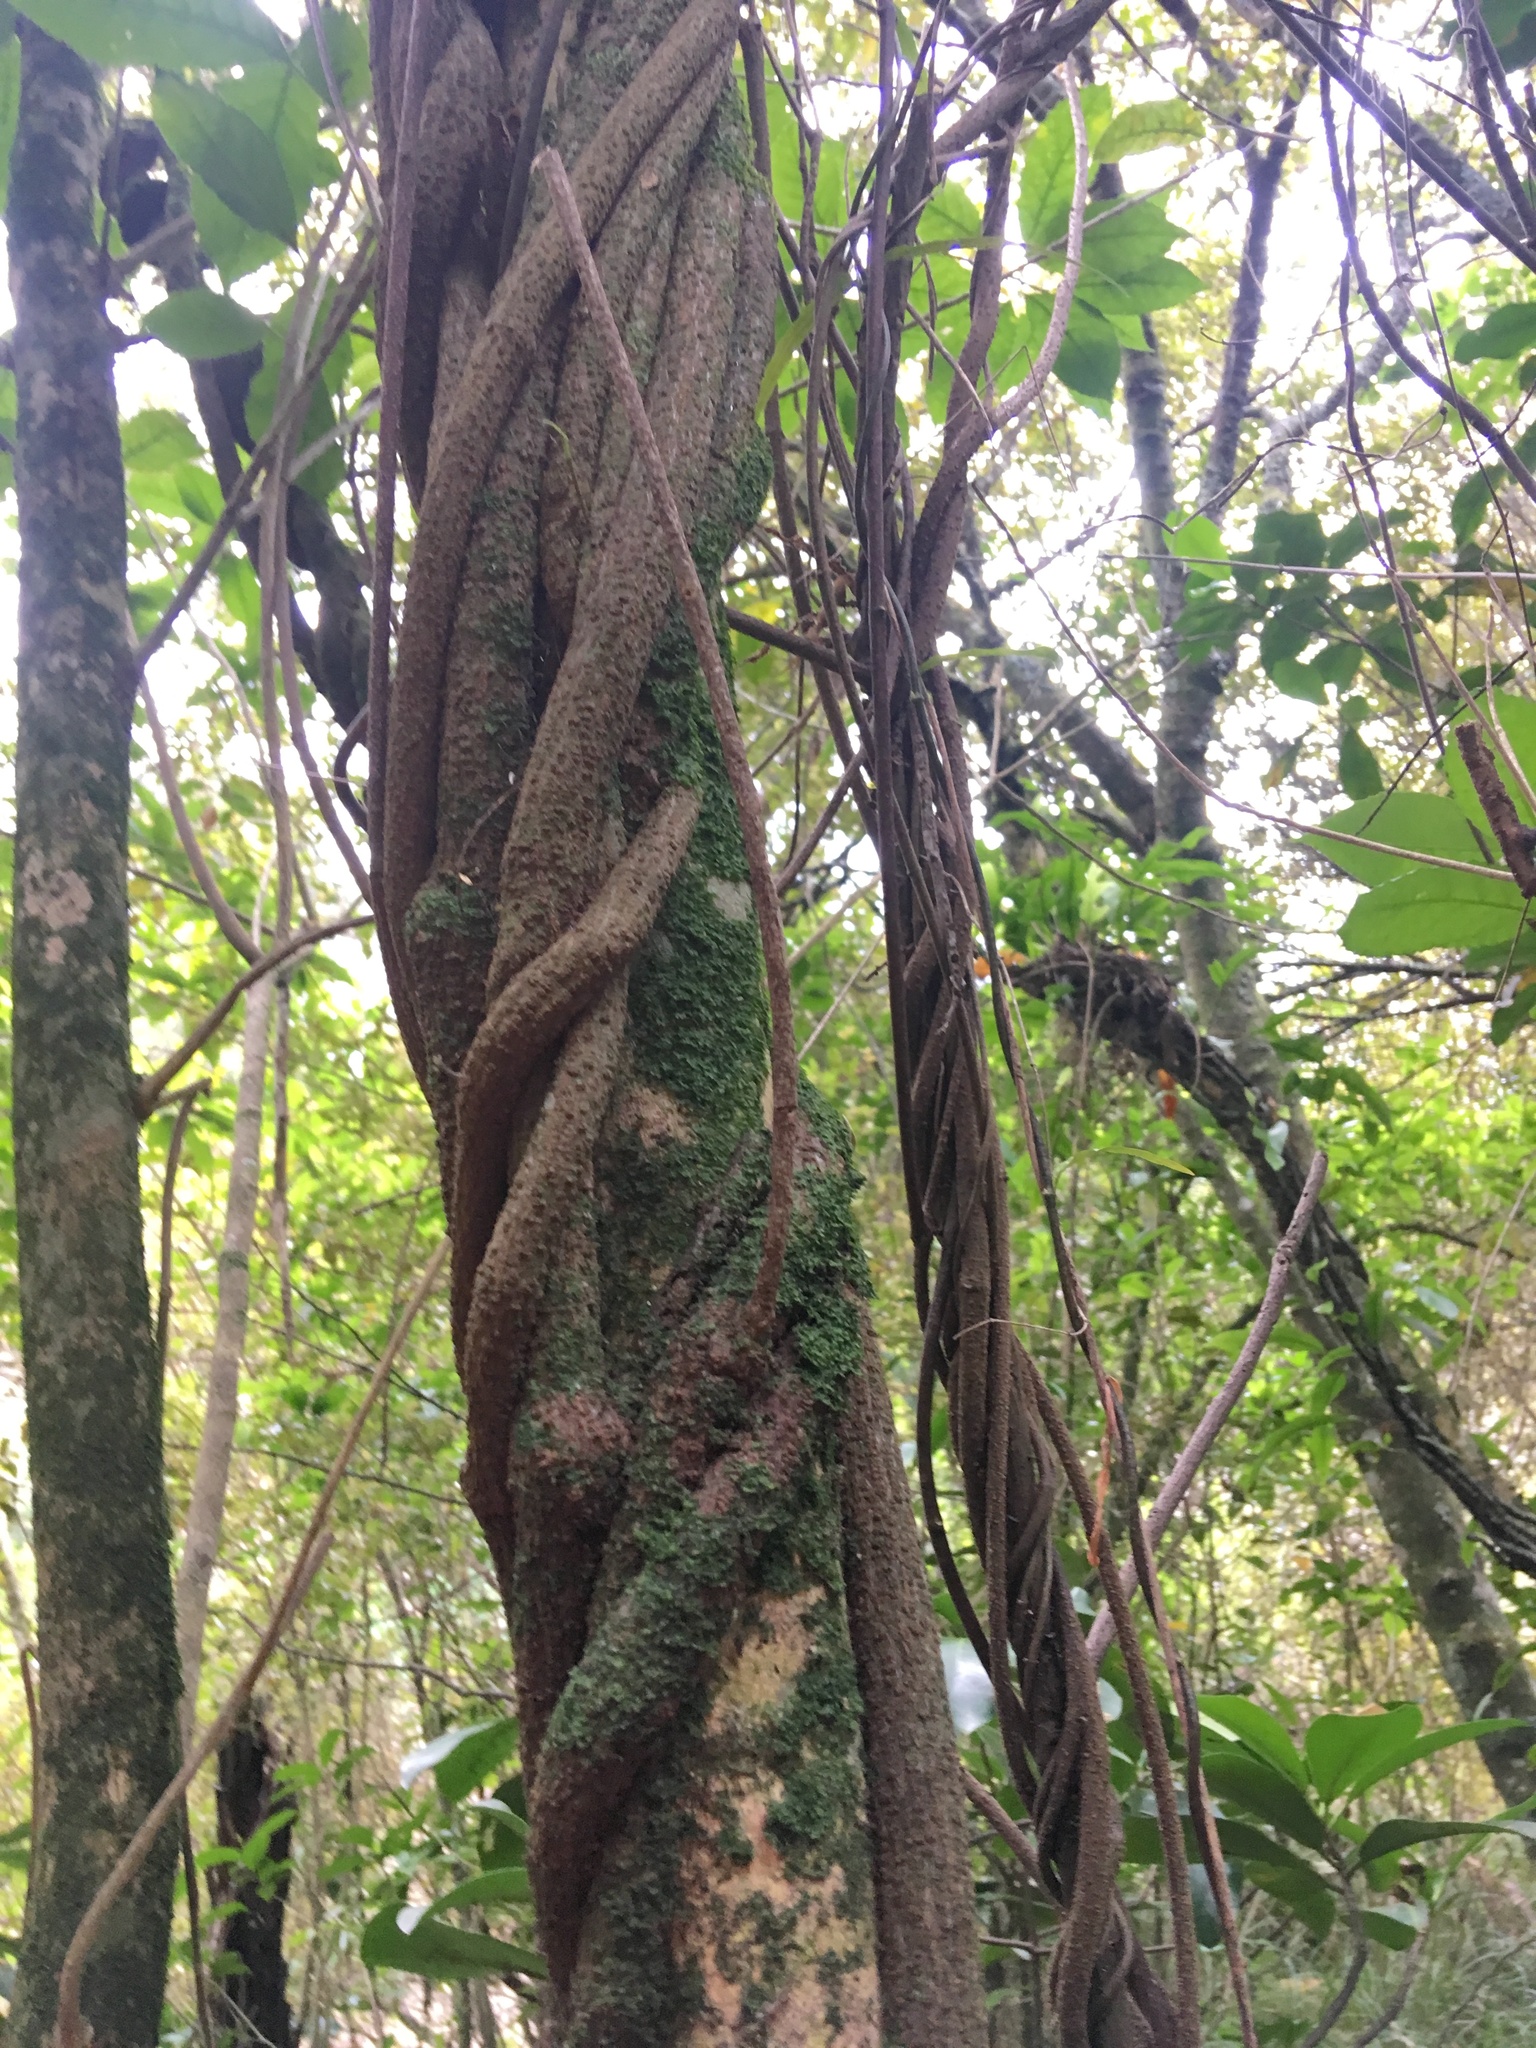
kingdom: Plantae
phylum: Tracheophyta
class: Magnoliopsida
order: Malpighiales
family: Passifloraceae
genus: Passiflora
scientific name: Passiflora tetrandra
